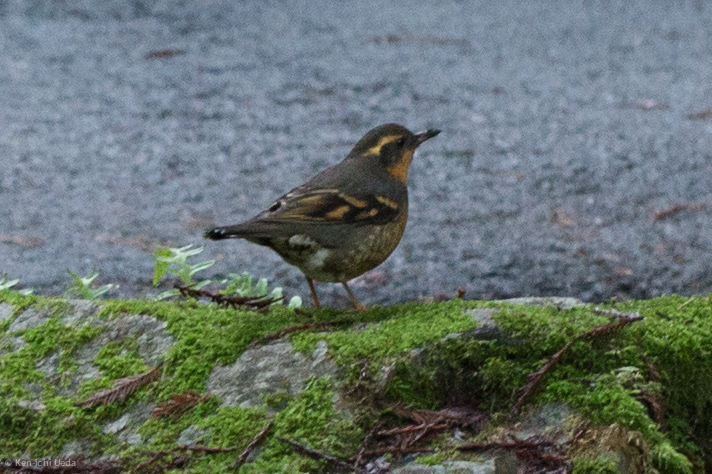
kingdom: Animalia
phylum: Chordata
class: Aves
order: Passeriformes
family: Turdidae
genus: Ixoreus
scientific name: Ixoreus naevius
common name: Varied thrush
